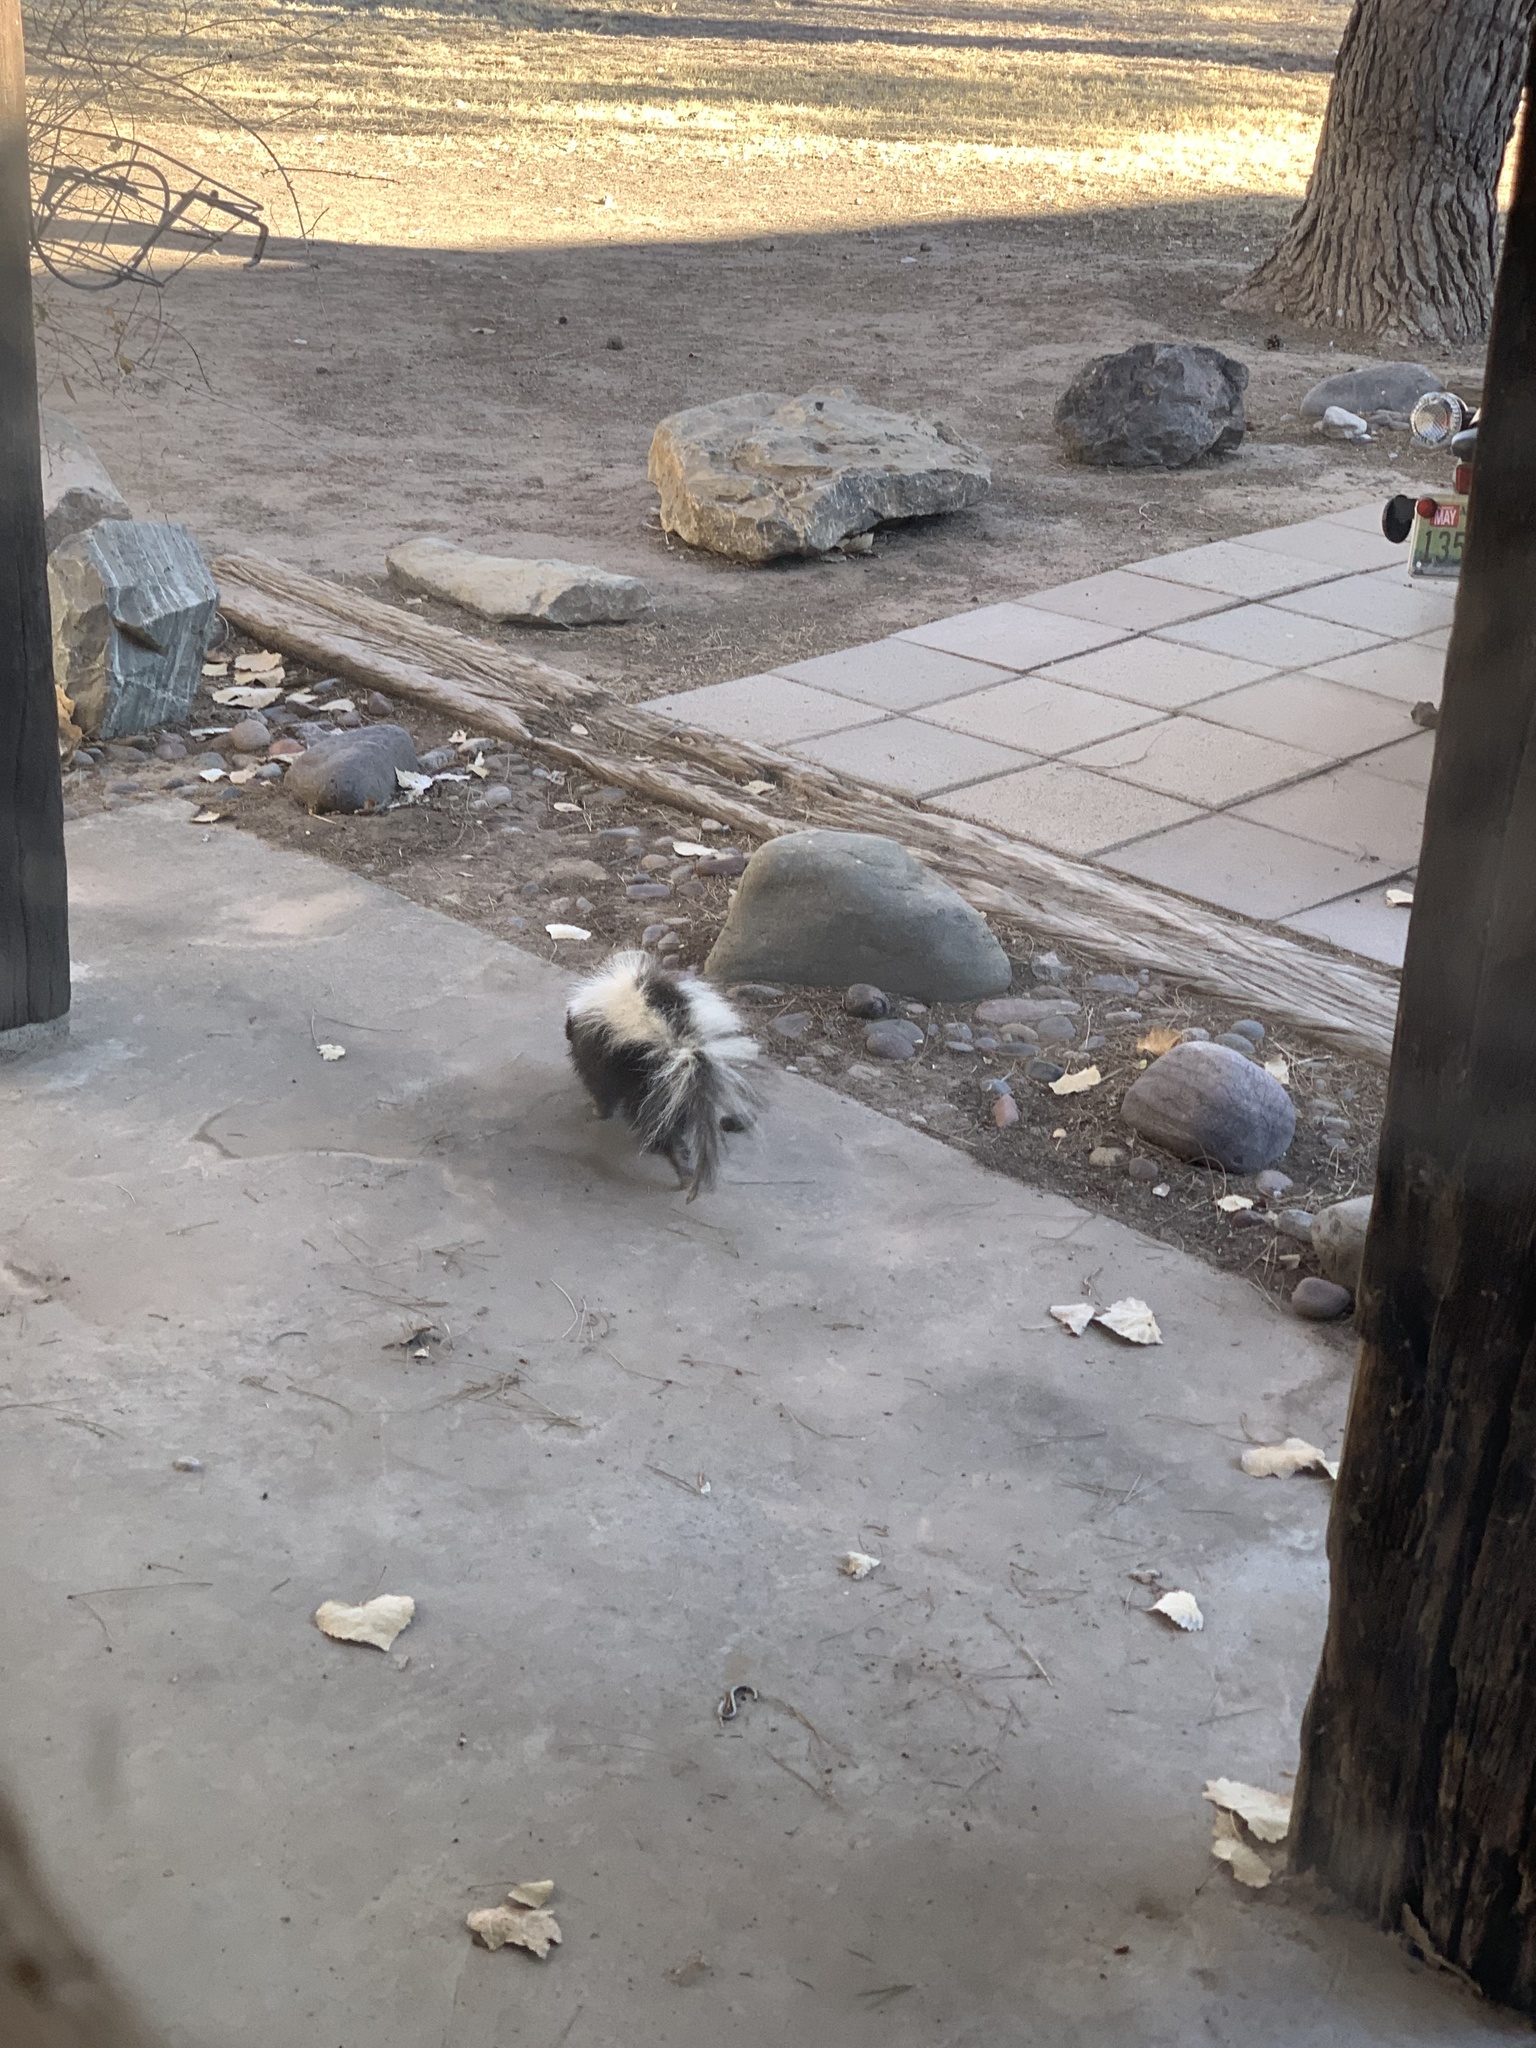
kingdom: Animalia
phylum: Chordata
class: Mammalia
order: Carnivora
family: Mephitidae
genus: Mephitis
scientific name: Mephitis mephitis
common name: Striped skunk
